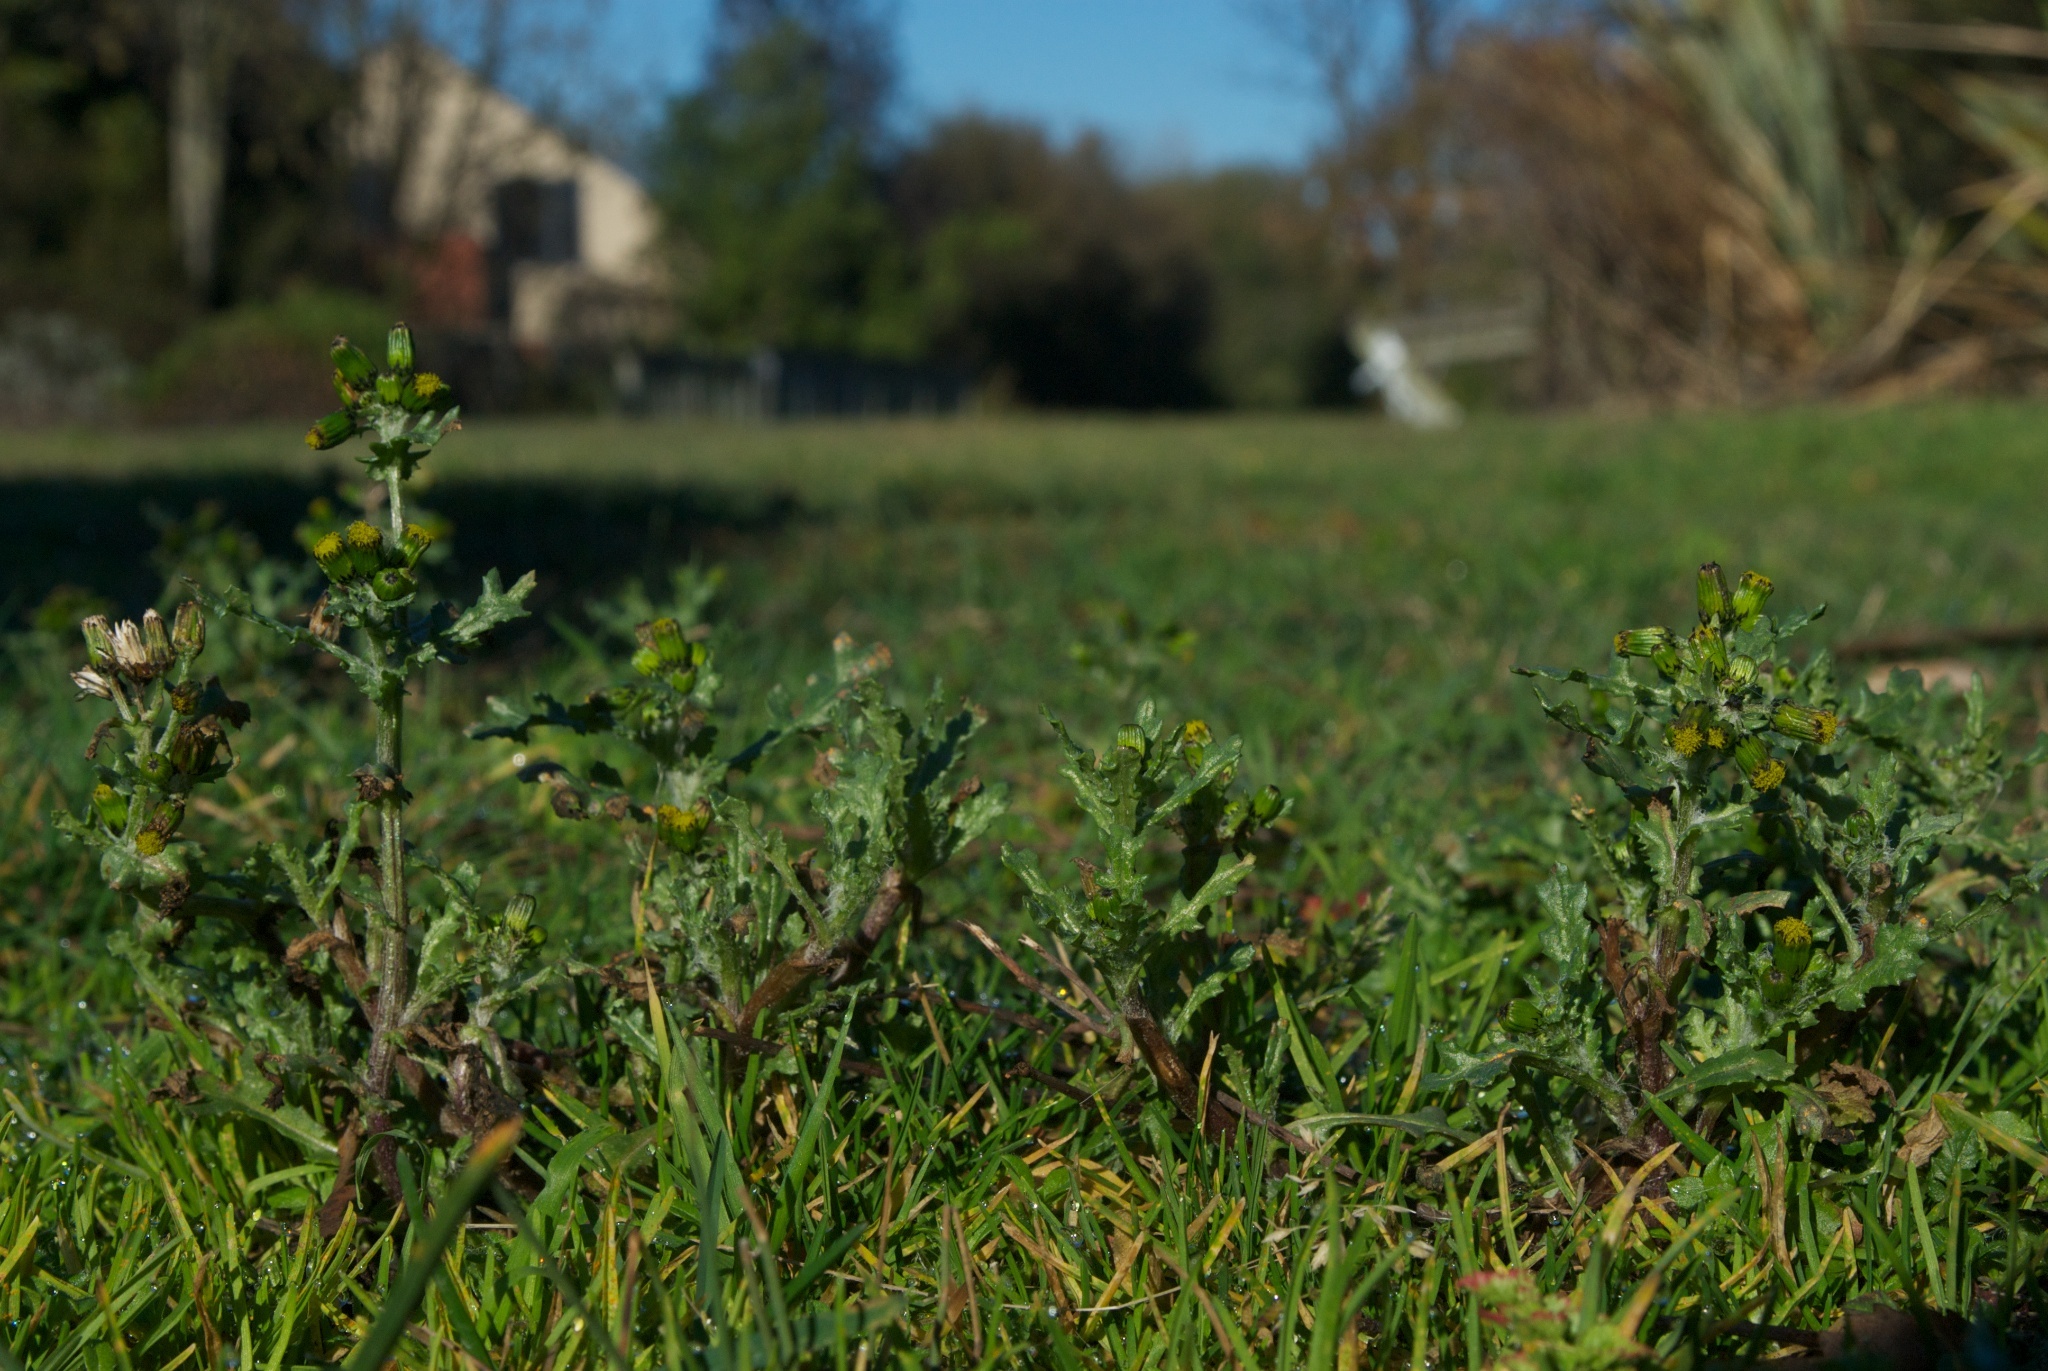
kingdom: Plantae
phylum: Tracheophyta
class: Magnoliopsida
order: Asterales
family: Asteraceae
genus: Senecio
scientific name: Senecio vulgaris
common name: Old-man-in-the-spring
